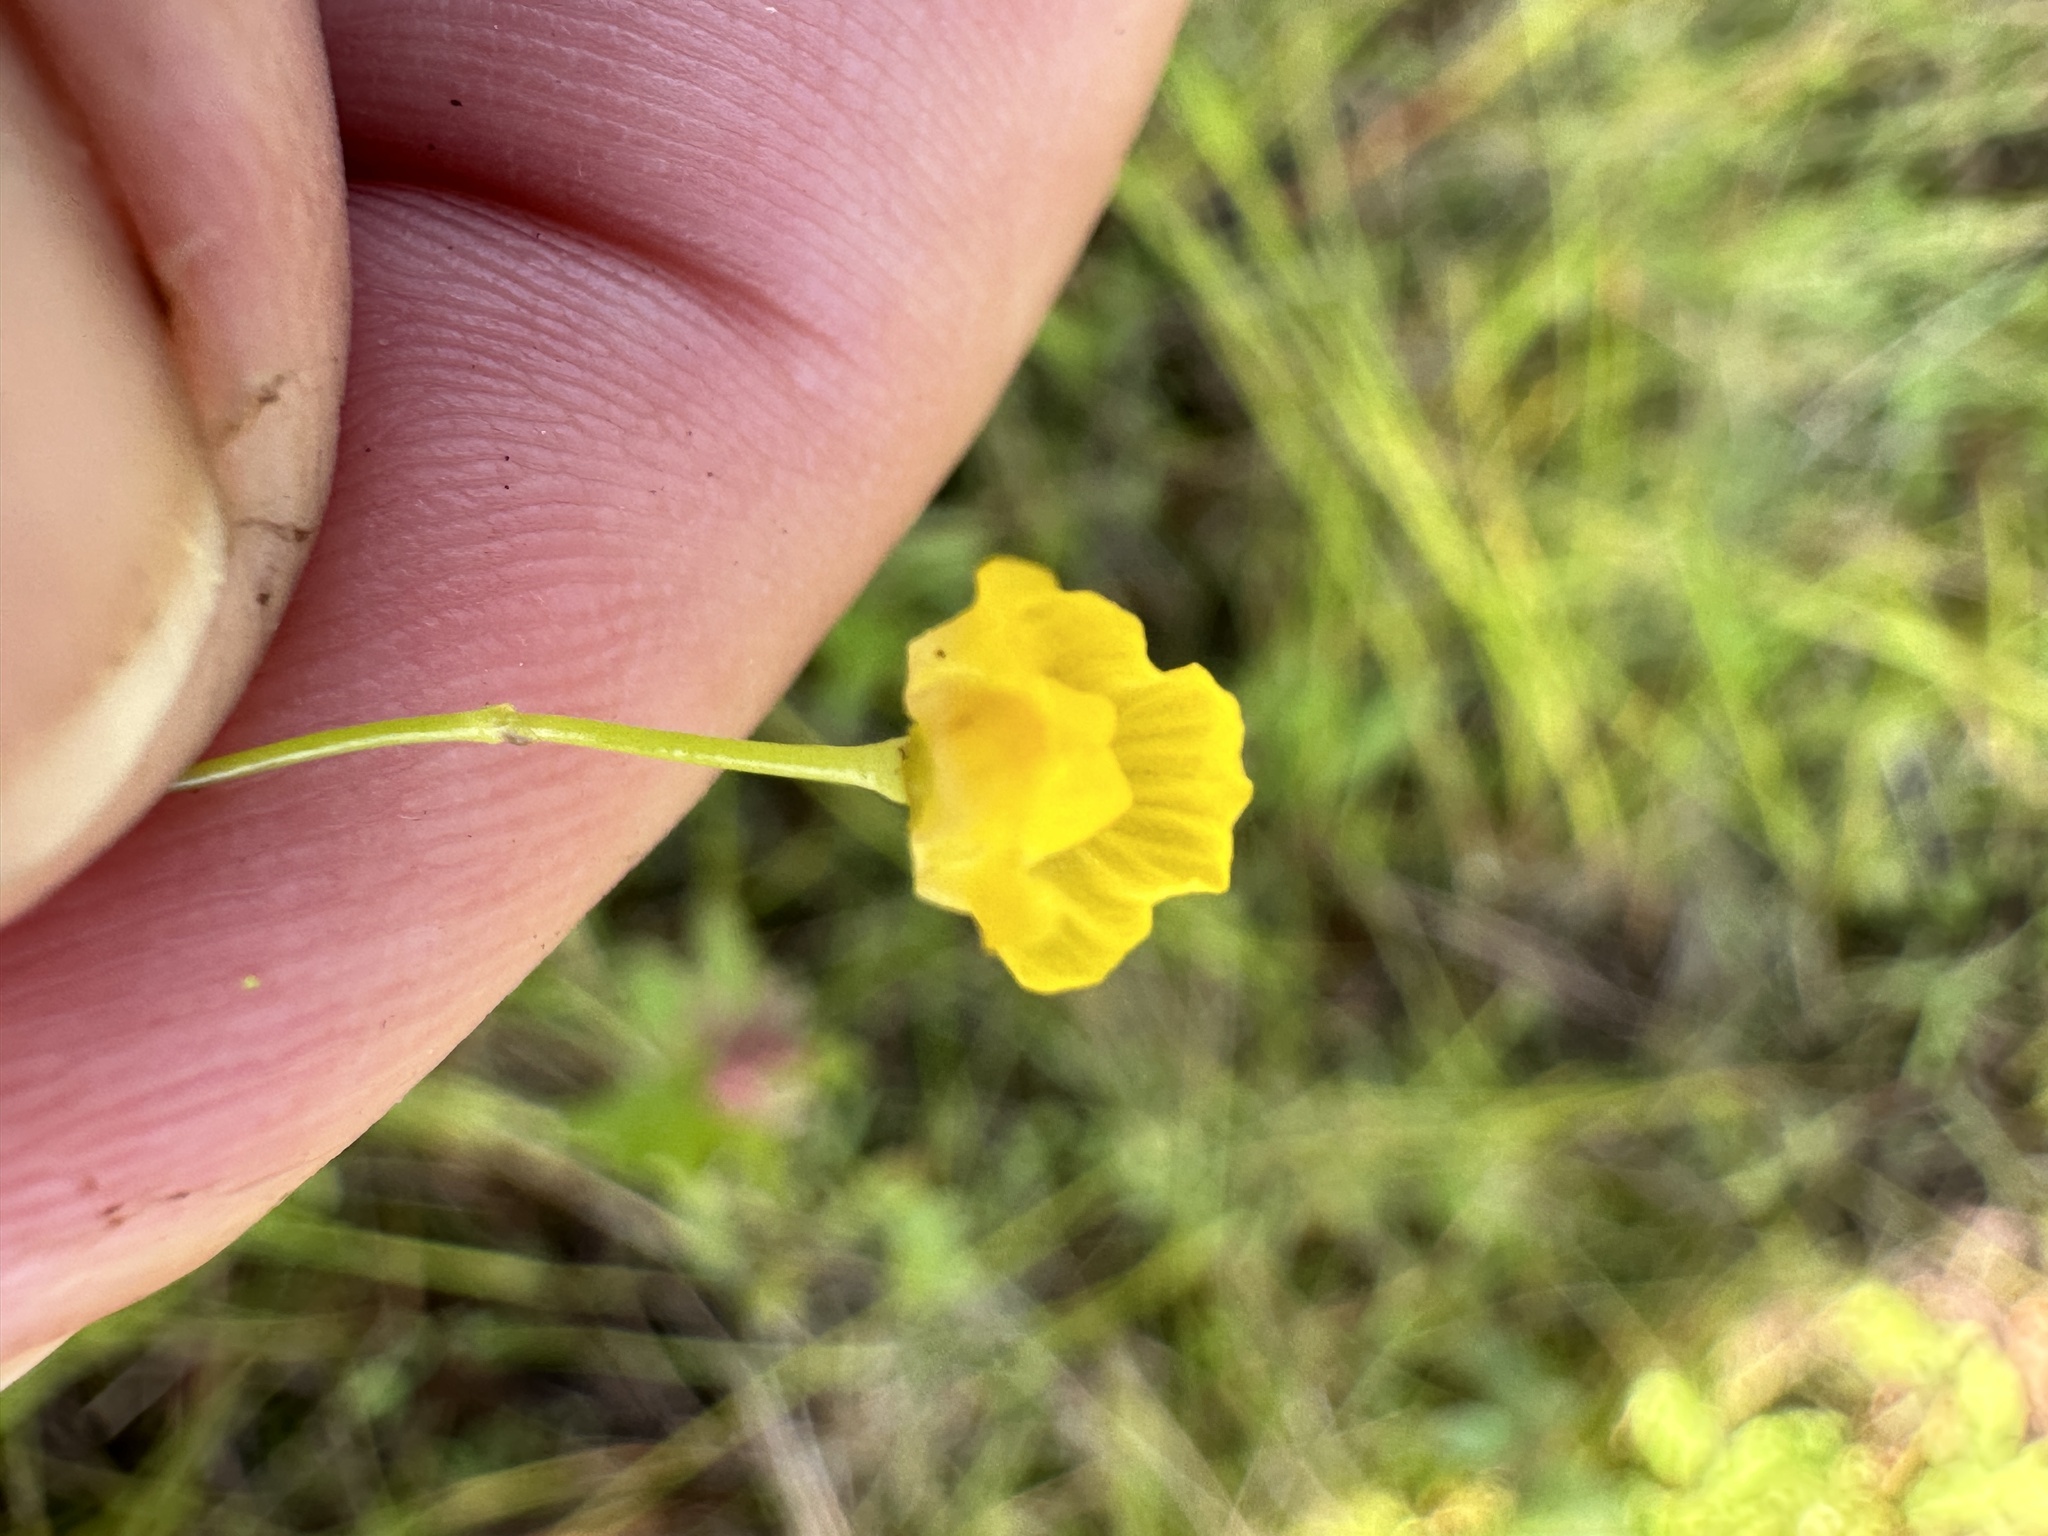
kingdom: Plantae
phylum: Tracheophyta
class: Magnoliopsida
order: Lamiales
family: Lentibulariaceae
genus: Utricularia
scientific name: Utricularia gibba
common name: Humped bladderwort
